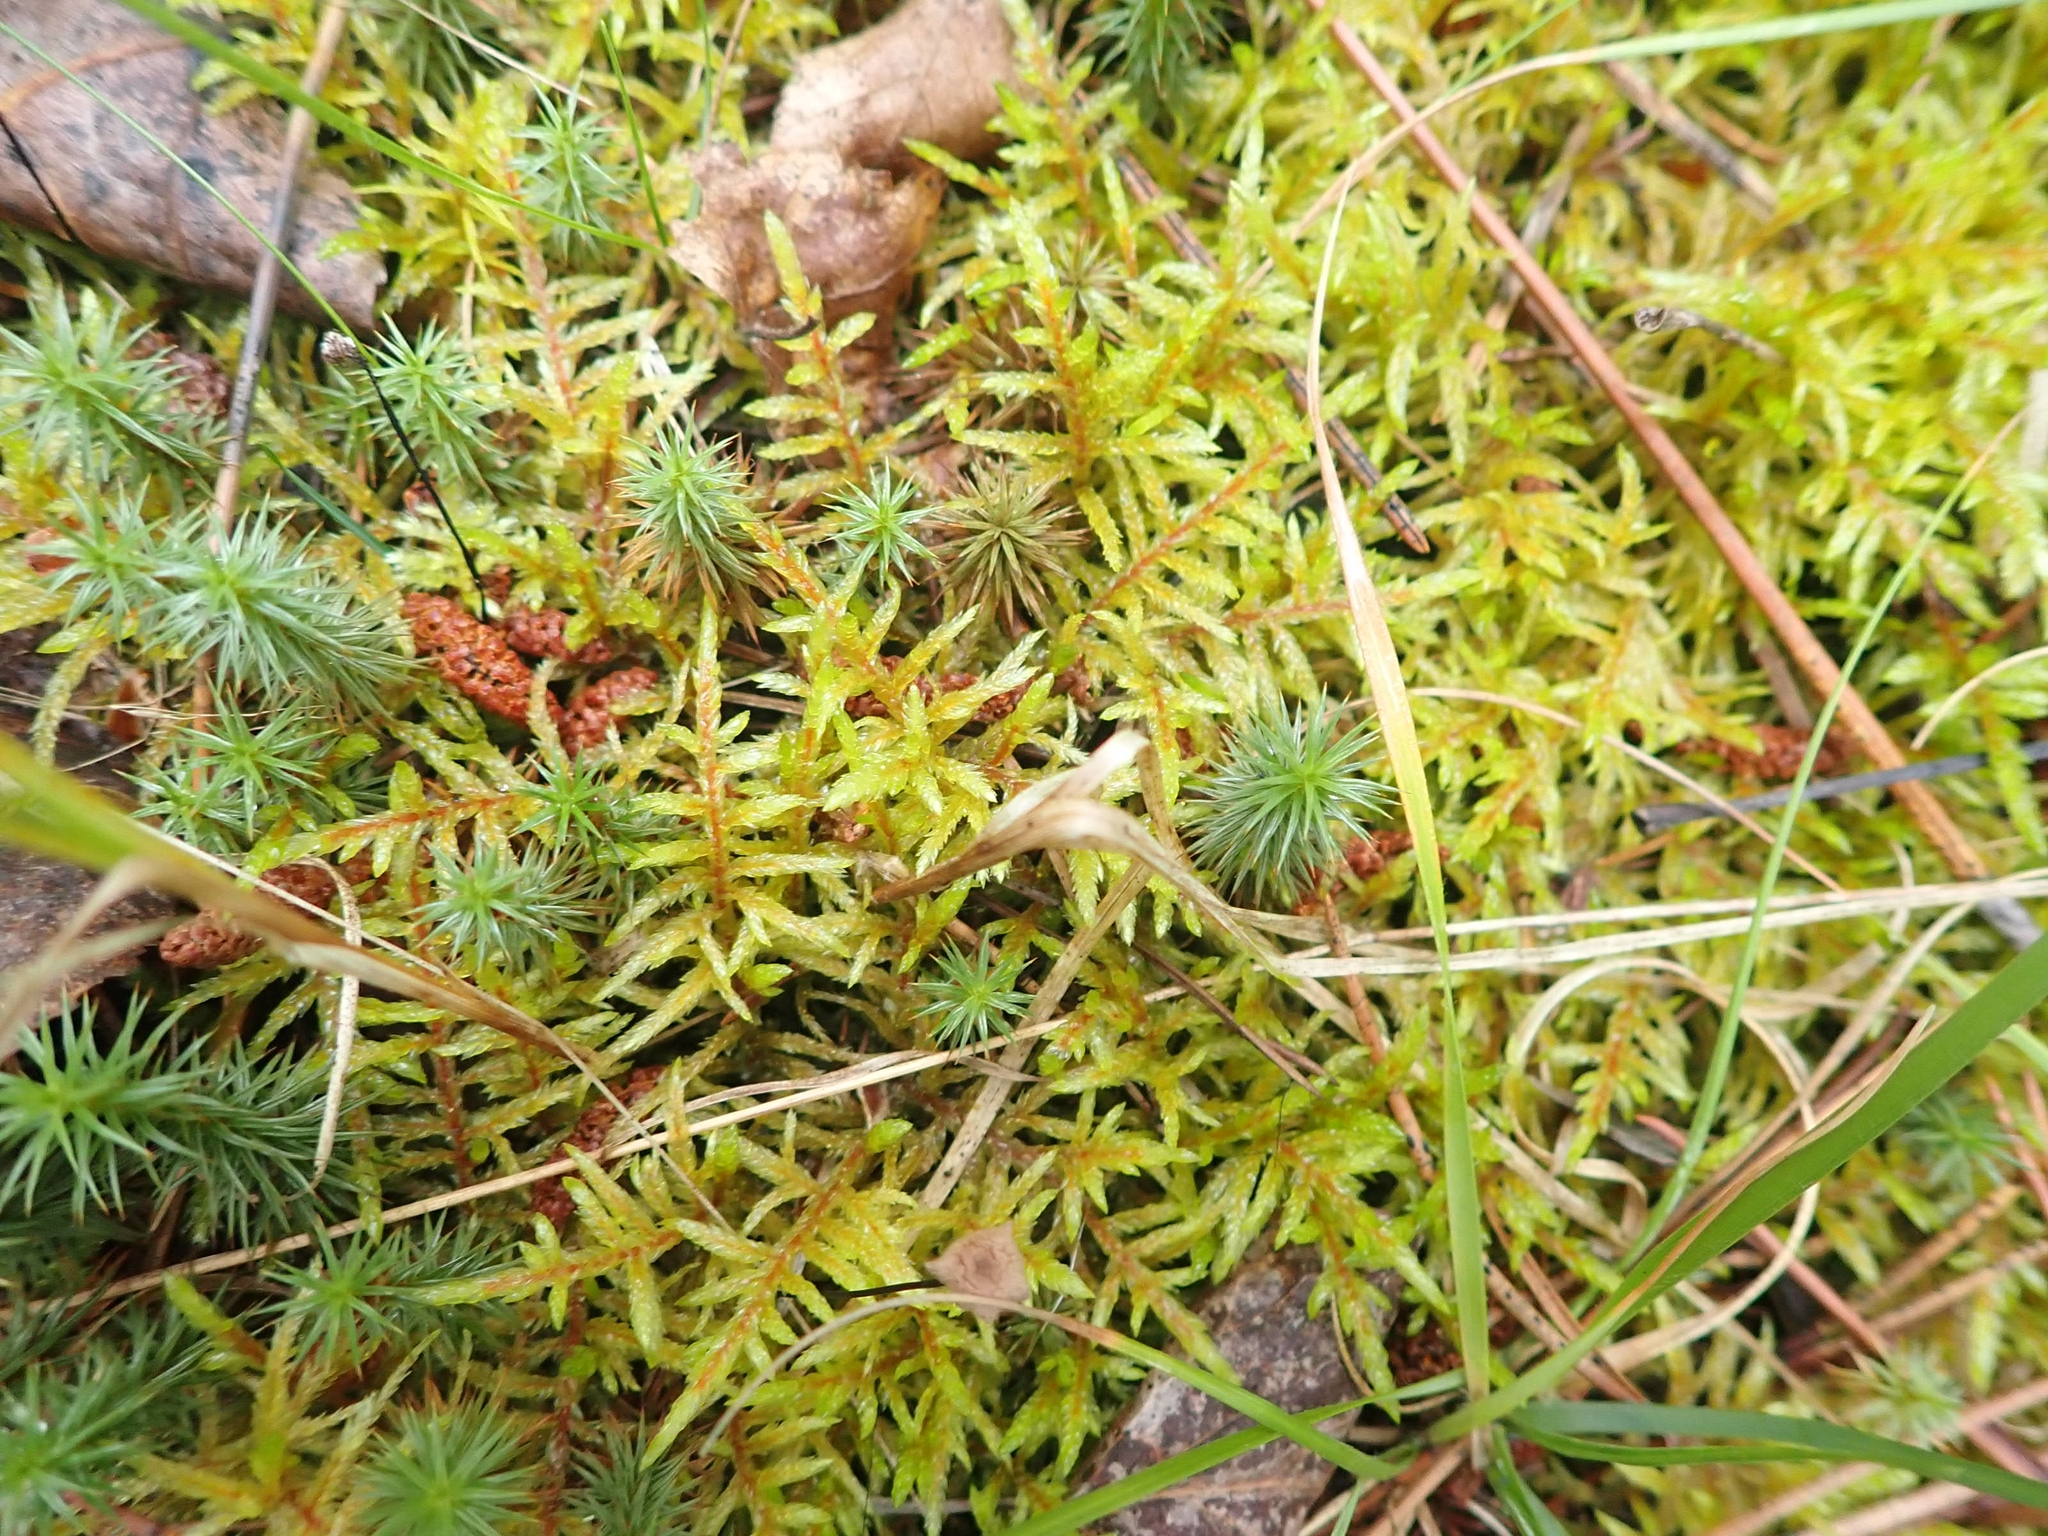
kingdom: Plantae
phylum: Bryophyta
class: Bryopsida
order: Hypnales
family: Hylocomiaceae
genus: Pleurozium
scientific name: Pleurozium schreberi
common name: Red-stemmed feather moss
